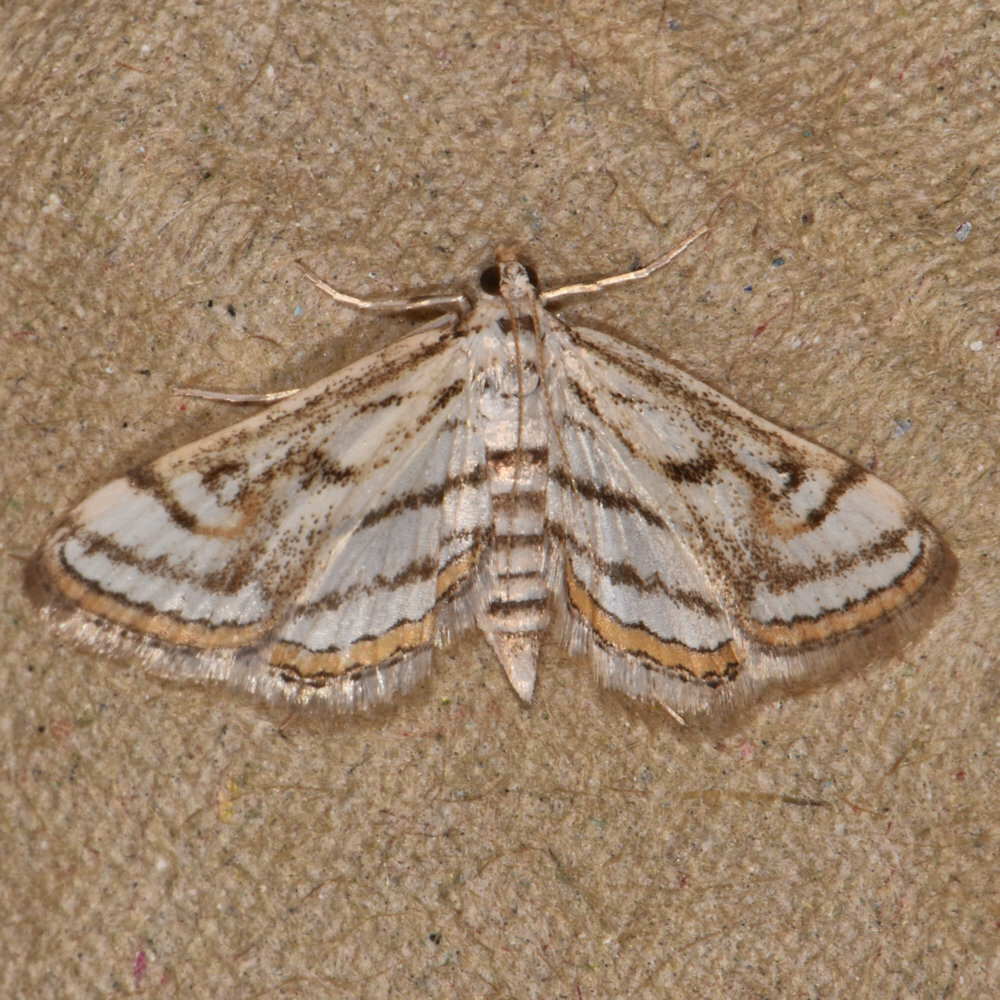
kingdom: Animalia
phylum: Arthropoda
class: Insecta
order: Lepidoptera
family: Crambidae
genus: Parapoynx
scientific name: Parapoynx badiusalis
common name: Chestnut-marked pondweed moth
